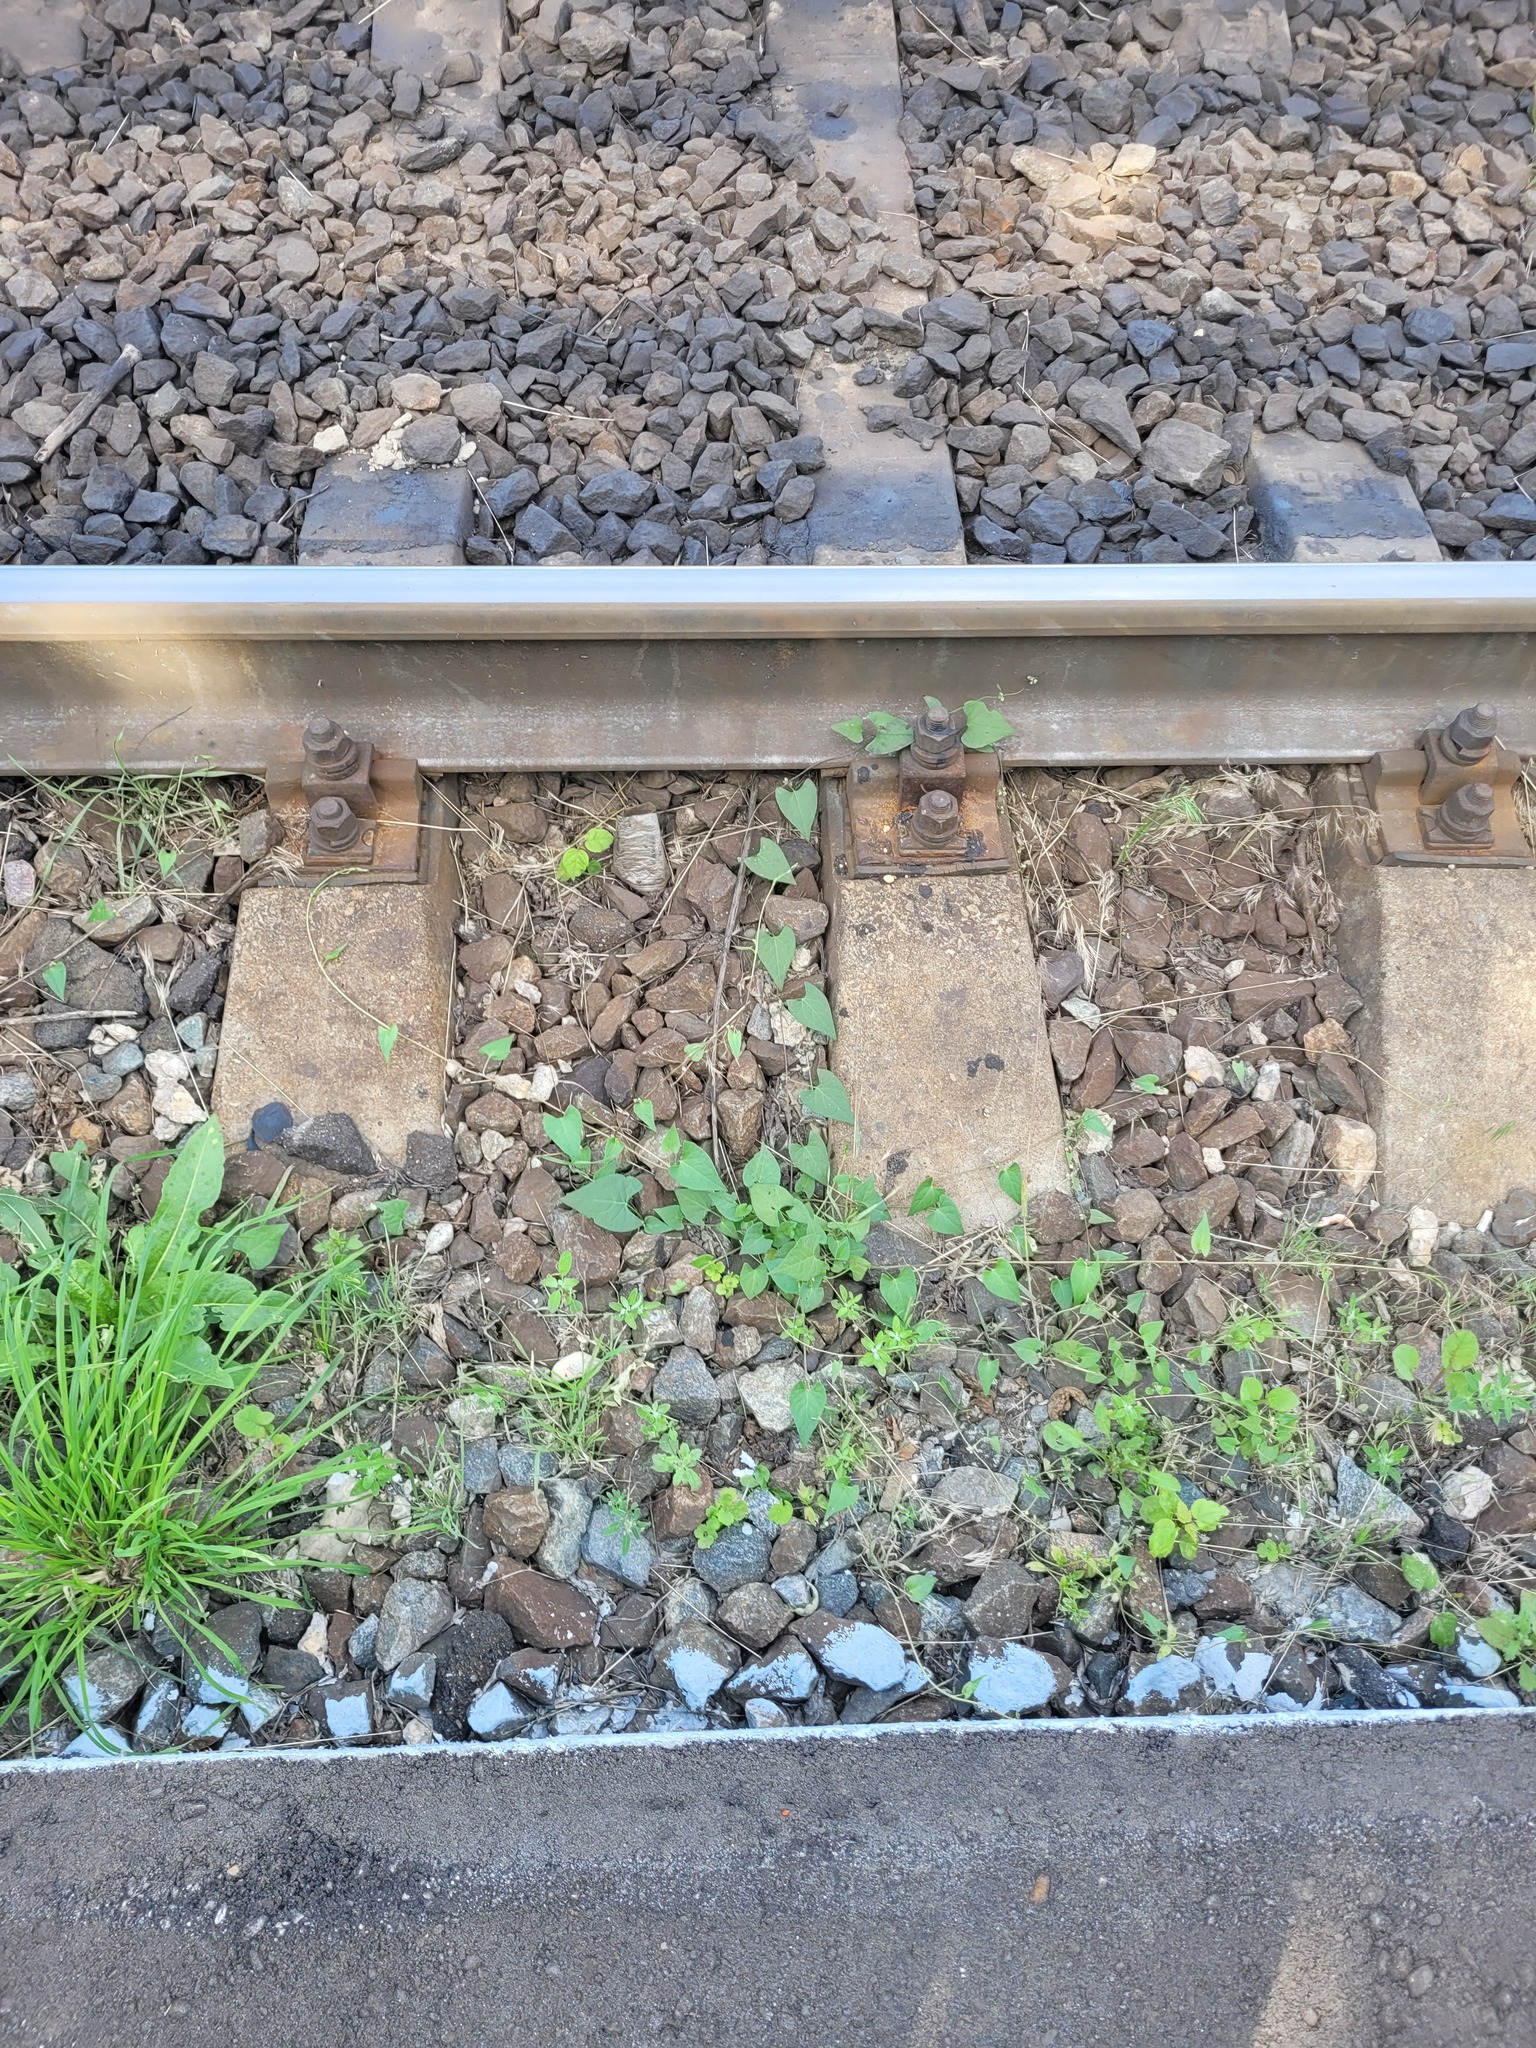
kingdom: Plantae
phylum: Tracheophyta
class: Magnoliopsida
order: Caryophyllales
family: Polygonaceae
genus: Fallopia
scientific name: Fallopia convolvulus
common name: Black bindweed
